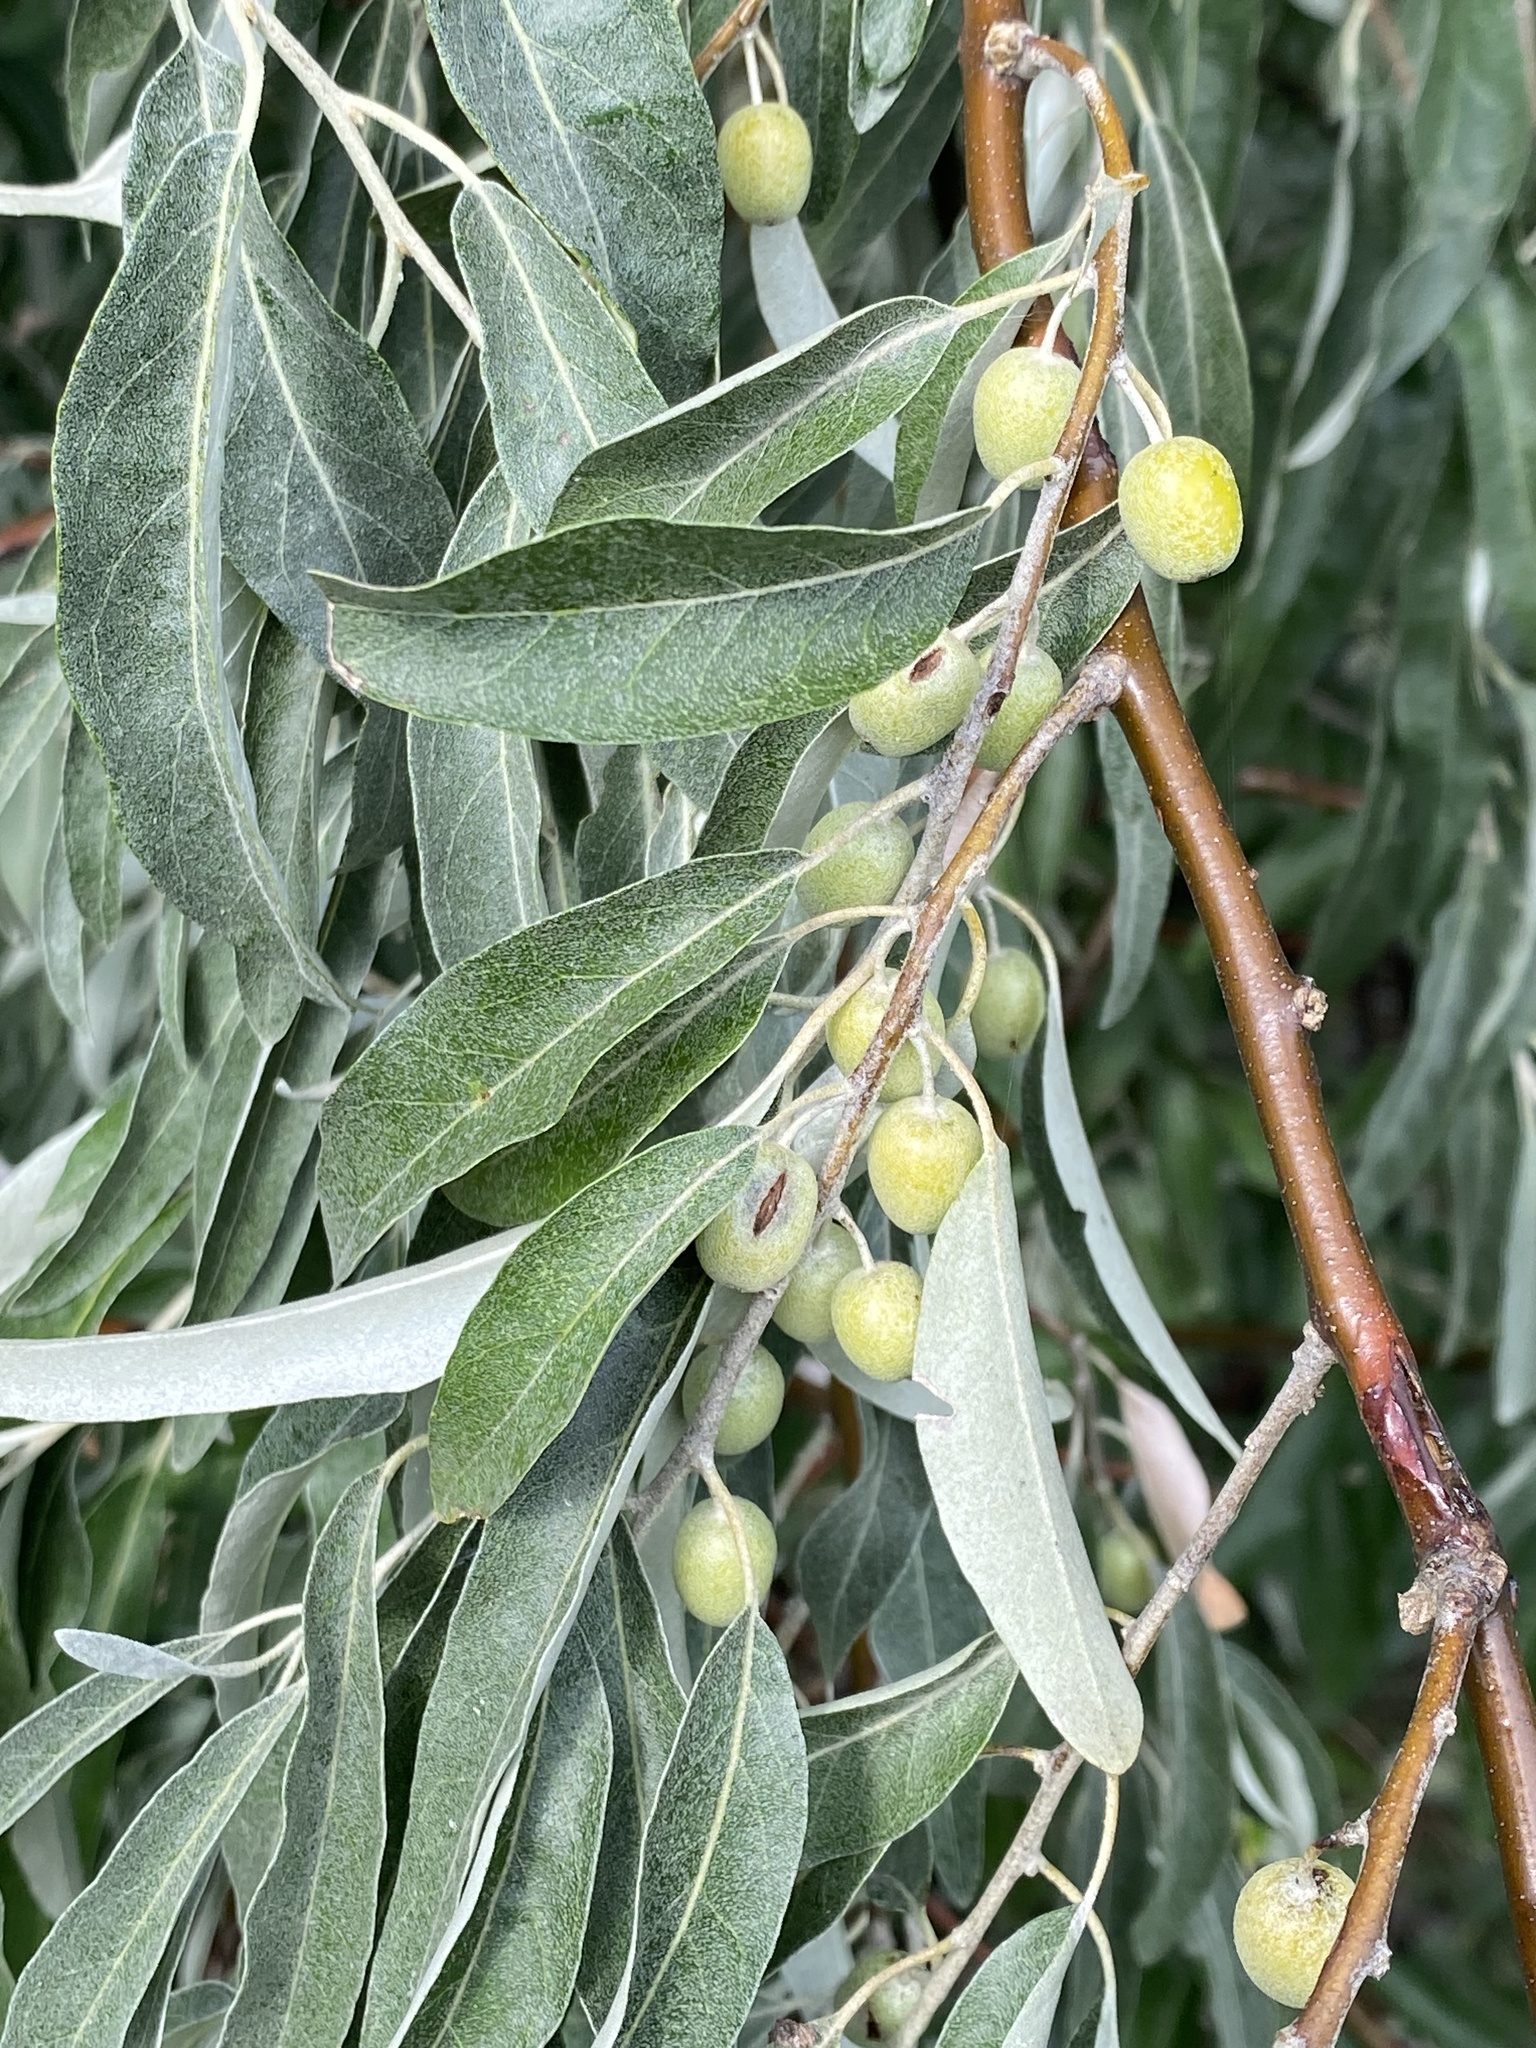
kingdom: Plantae
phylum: Tracheophyta
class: Magnoliopsida
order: Rosales
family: Elaeagnaceae
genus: Elaeagnus
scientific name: Elaeagnus angustifolia
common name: Russian olive
